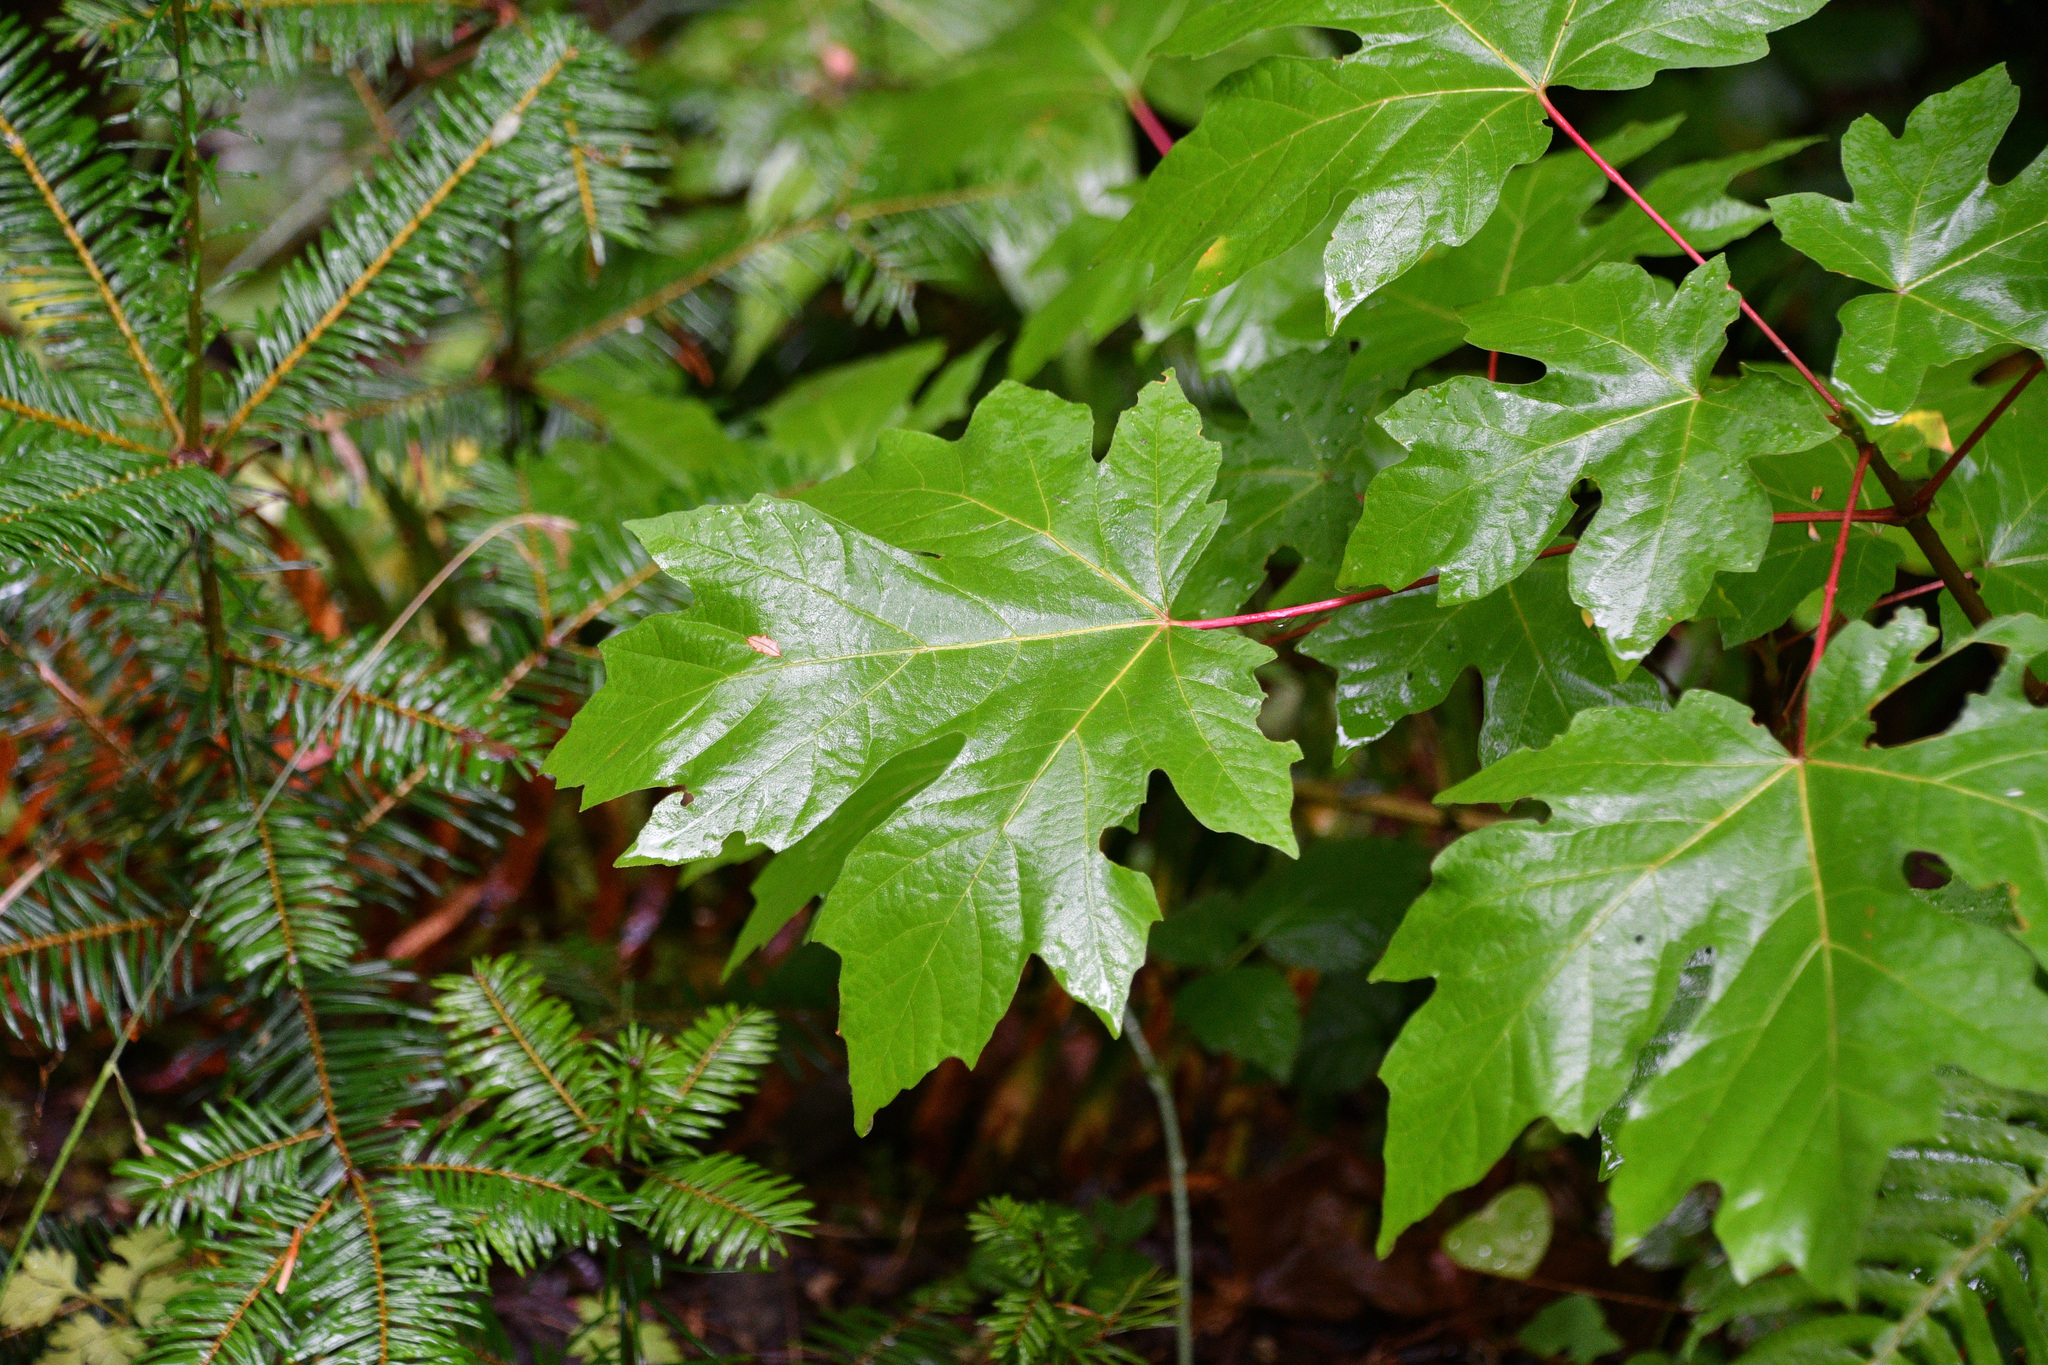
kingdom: Plantae
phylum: Tracheophyta
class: Magnoliopsida
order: Sapindales
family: Sapindaceae
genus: Acer
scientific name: Acer macrophyllum
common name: Oregon maple
